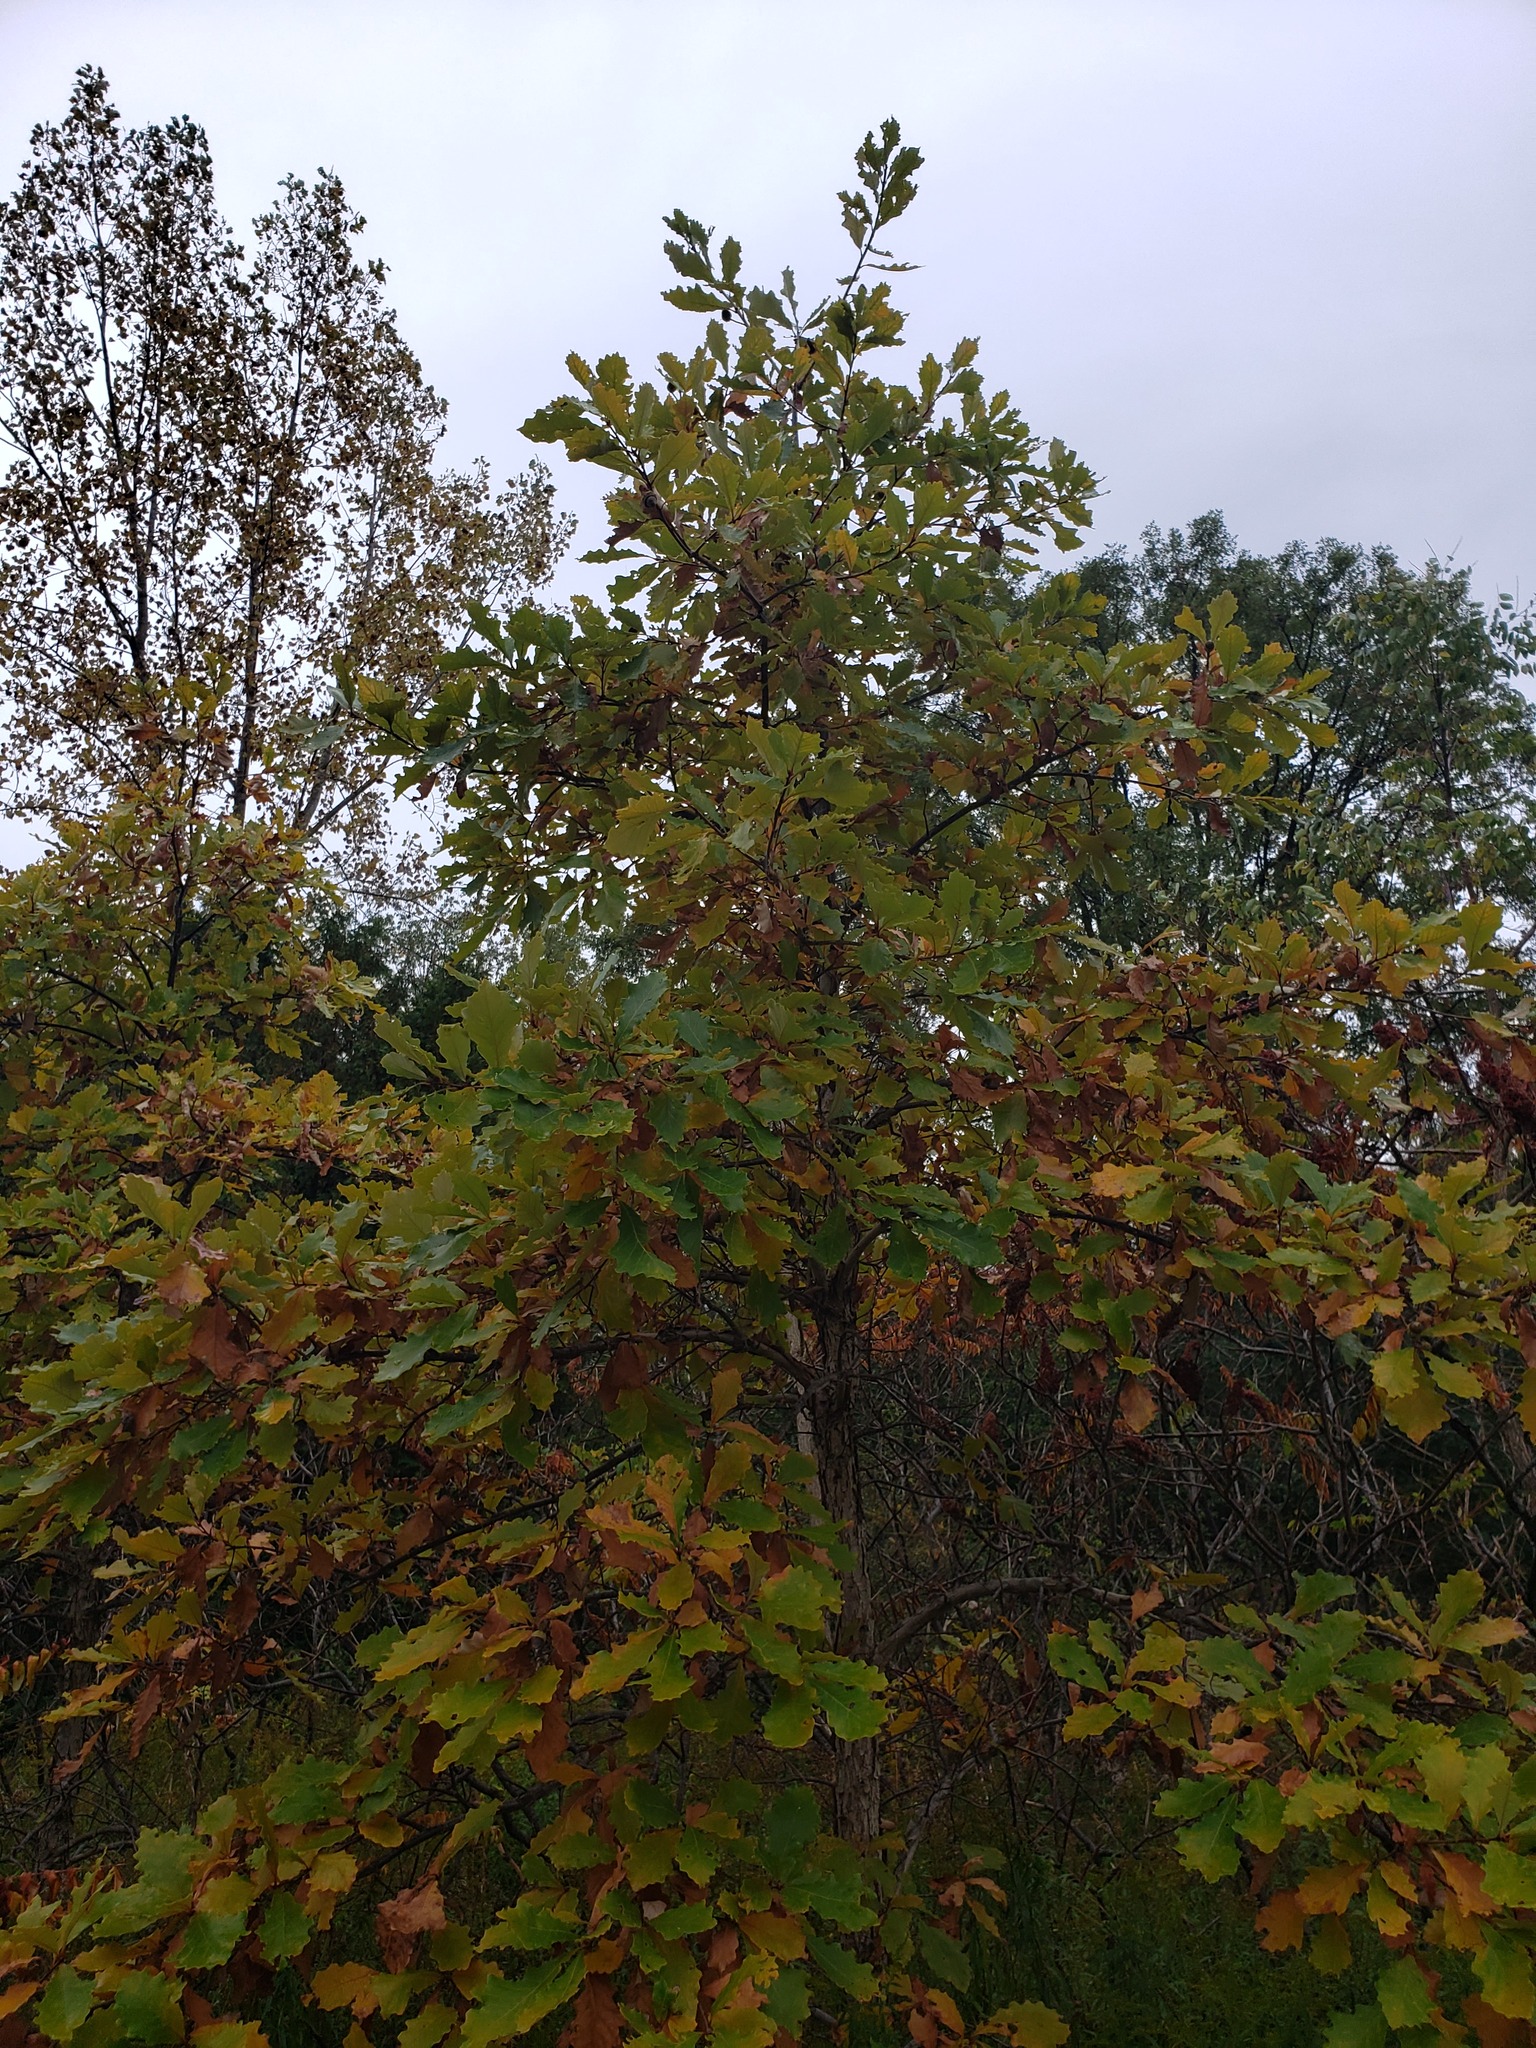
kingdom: Plantae
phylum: Tracheophyta
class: Magnoliopsida
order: Fagales
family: Fagaceae
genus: Quercus
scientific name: Quercus bicolor
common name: Swamp white oak
